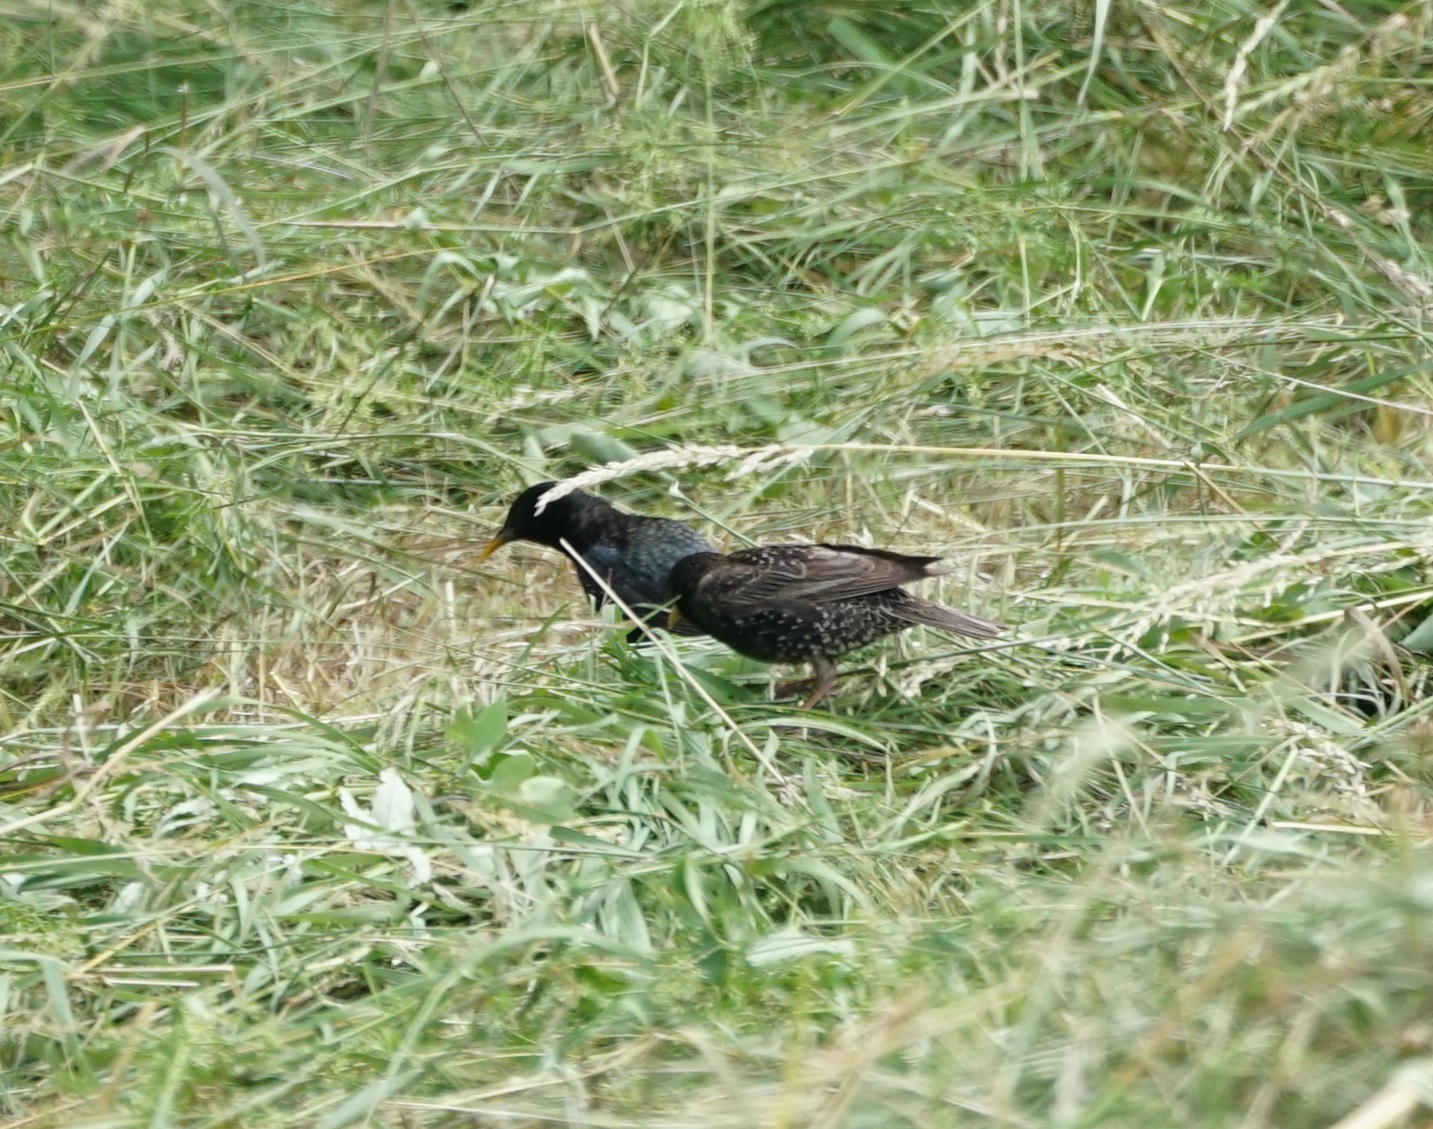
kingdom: Animalia
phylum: Chordata
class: Aves
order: Passeriformes
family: Sturnidae
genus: Sturnus
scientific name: Sturnus vulgaris
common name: Common starling
